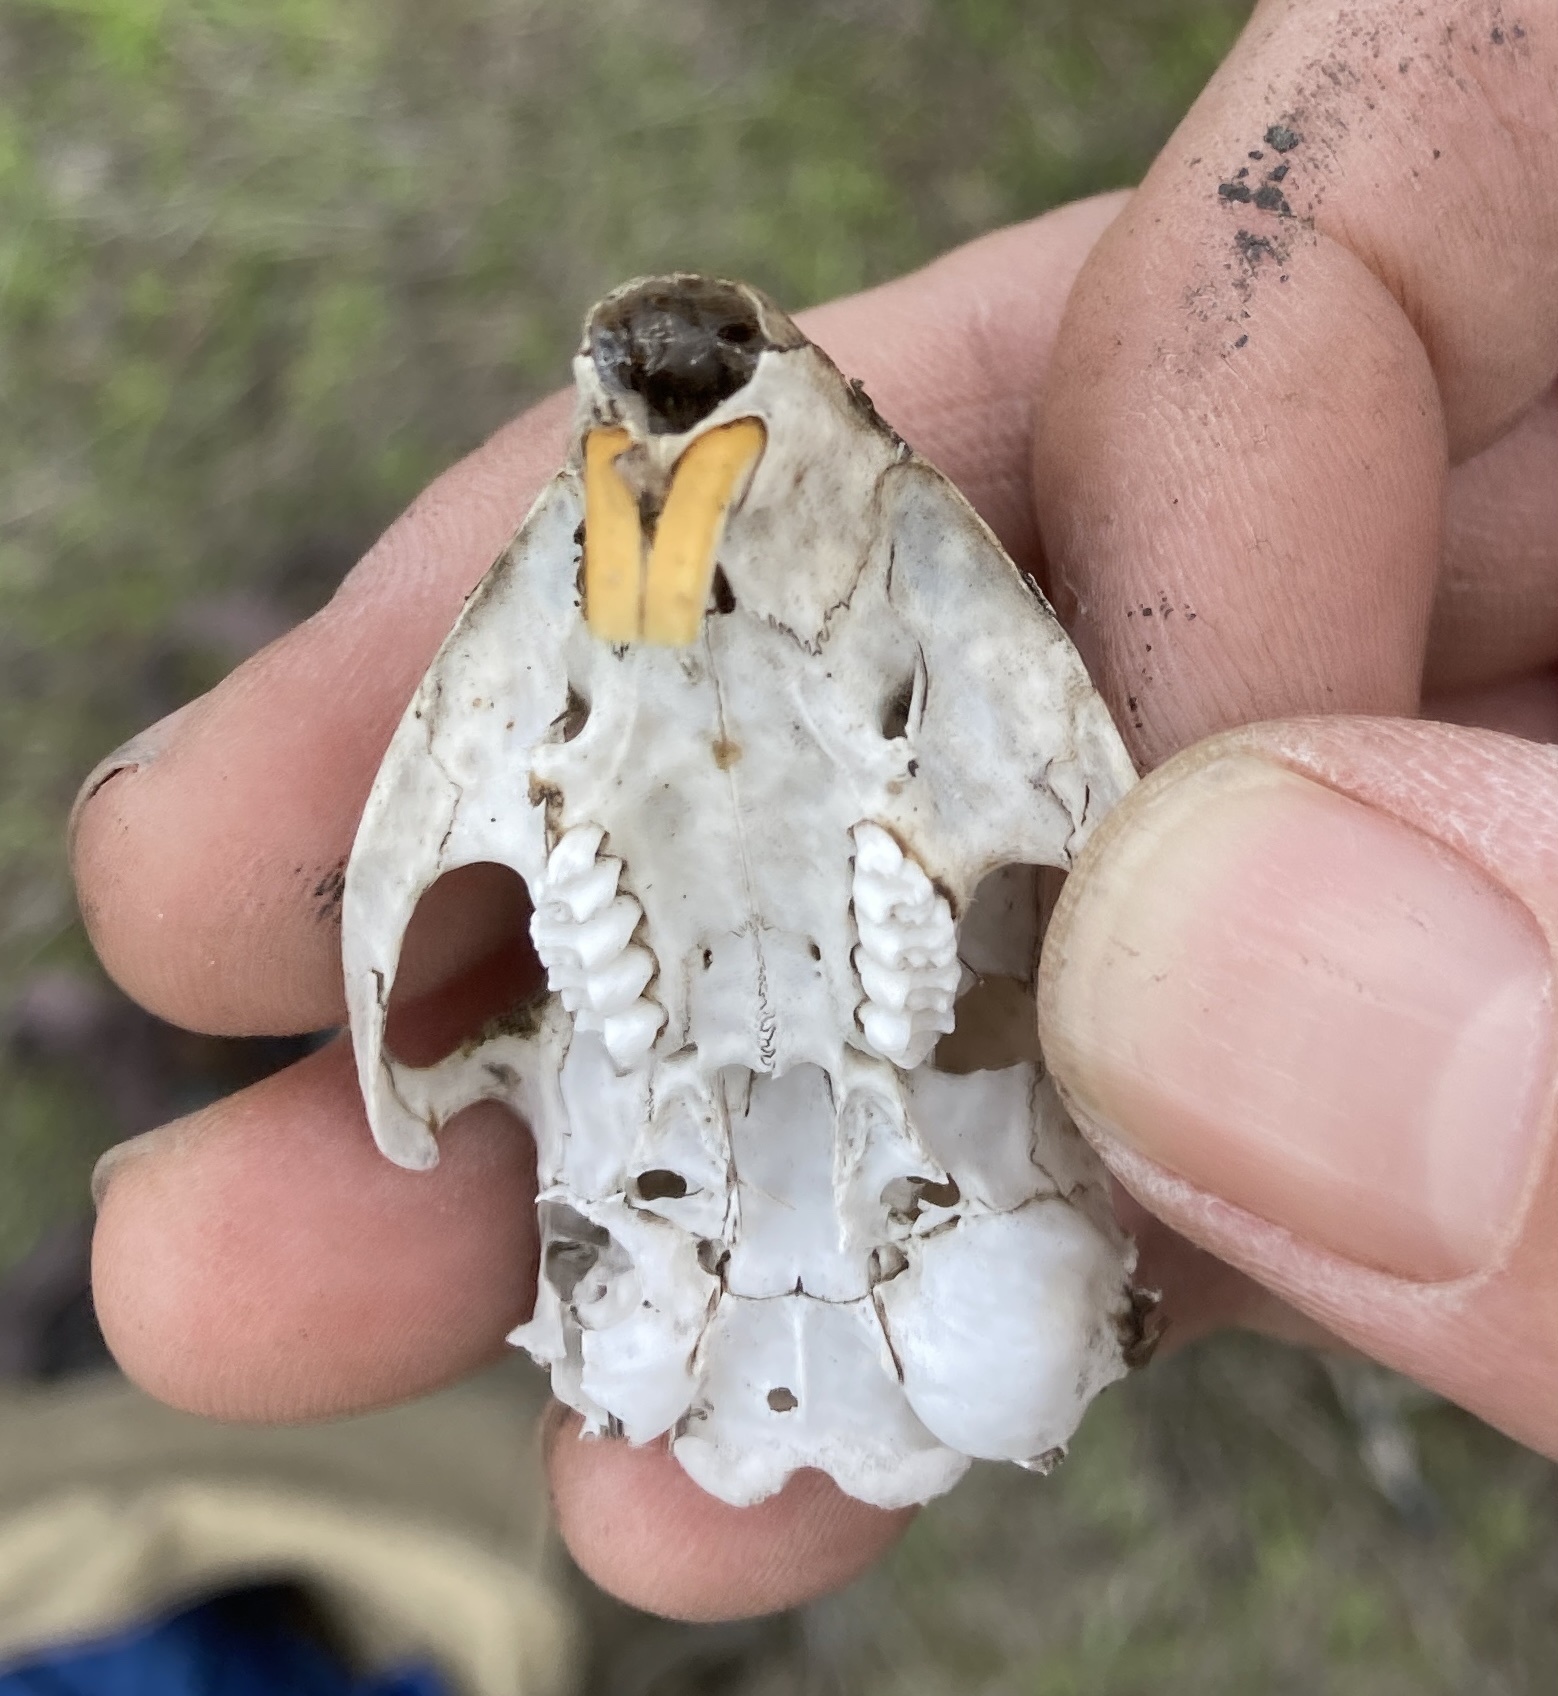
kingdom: Animalia
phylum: Chordata
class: Mammalia
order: Rodentia
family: Geomyidae
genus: Thomomys
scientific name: Thomomys bottae
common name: Botta's pocket gopher
